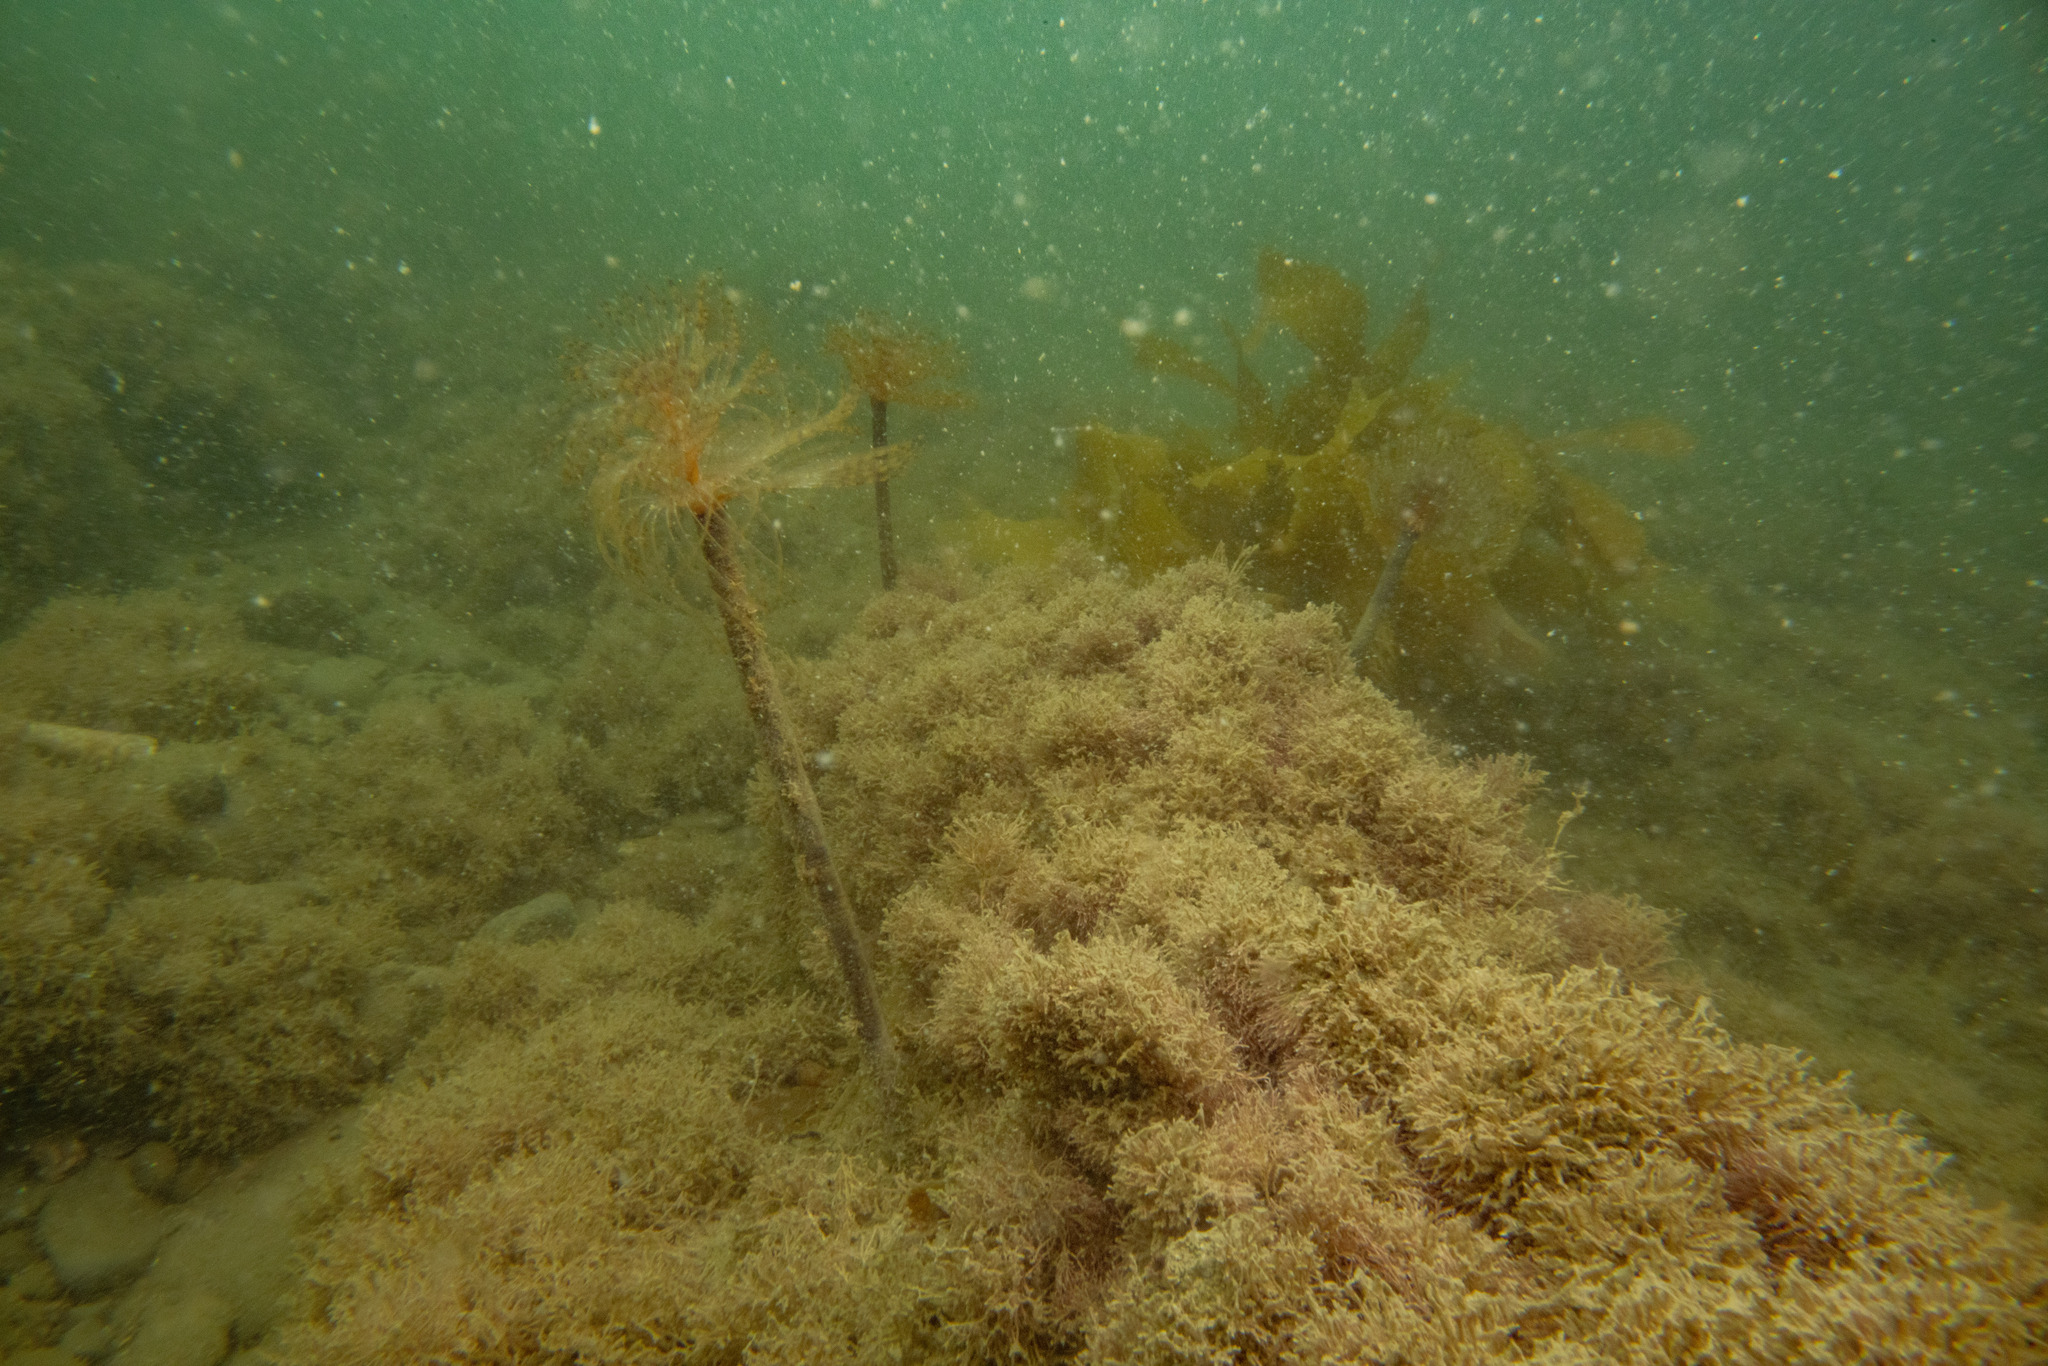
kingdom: Animalia
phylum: Annelida
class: Polychaeta
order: Sabellida
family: Sabellidae
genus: Sabella
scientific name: Sabella spallanzanii
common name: Feather duster worm
